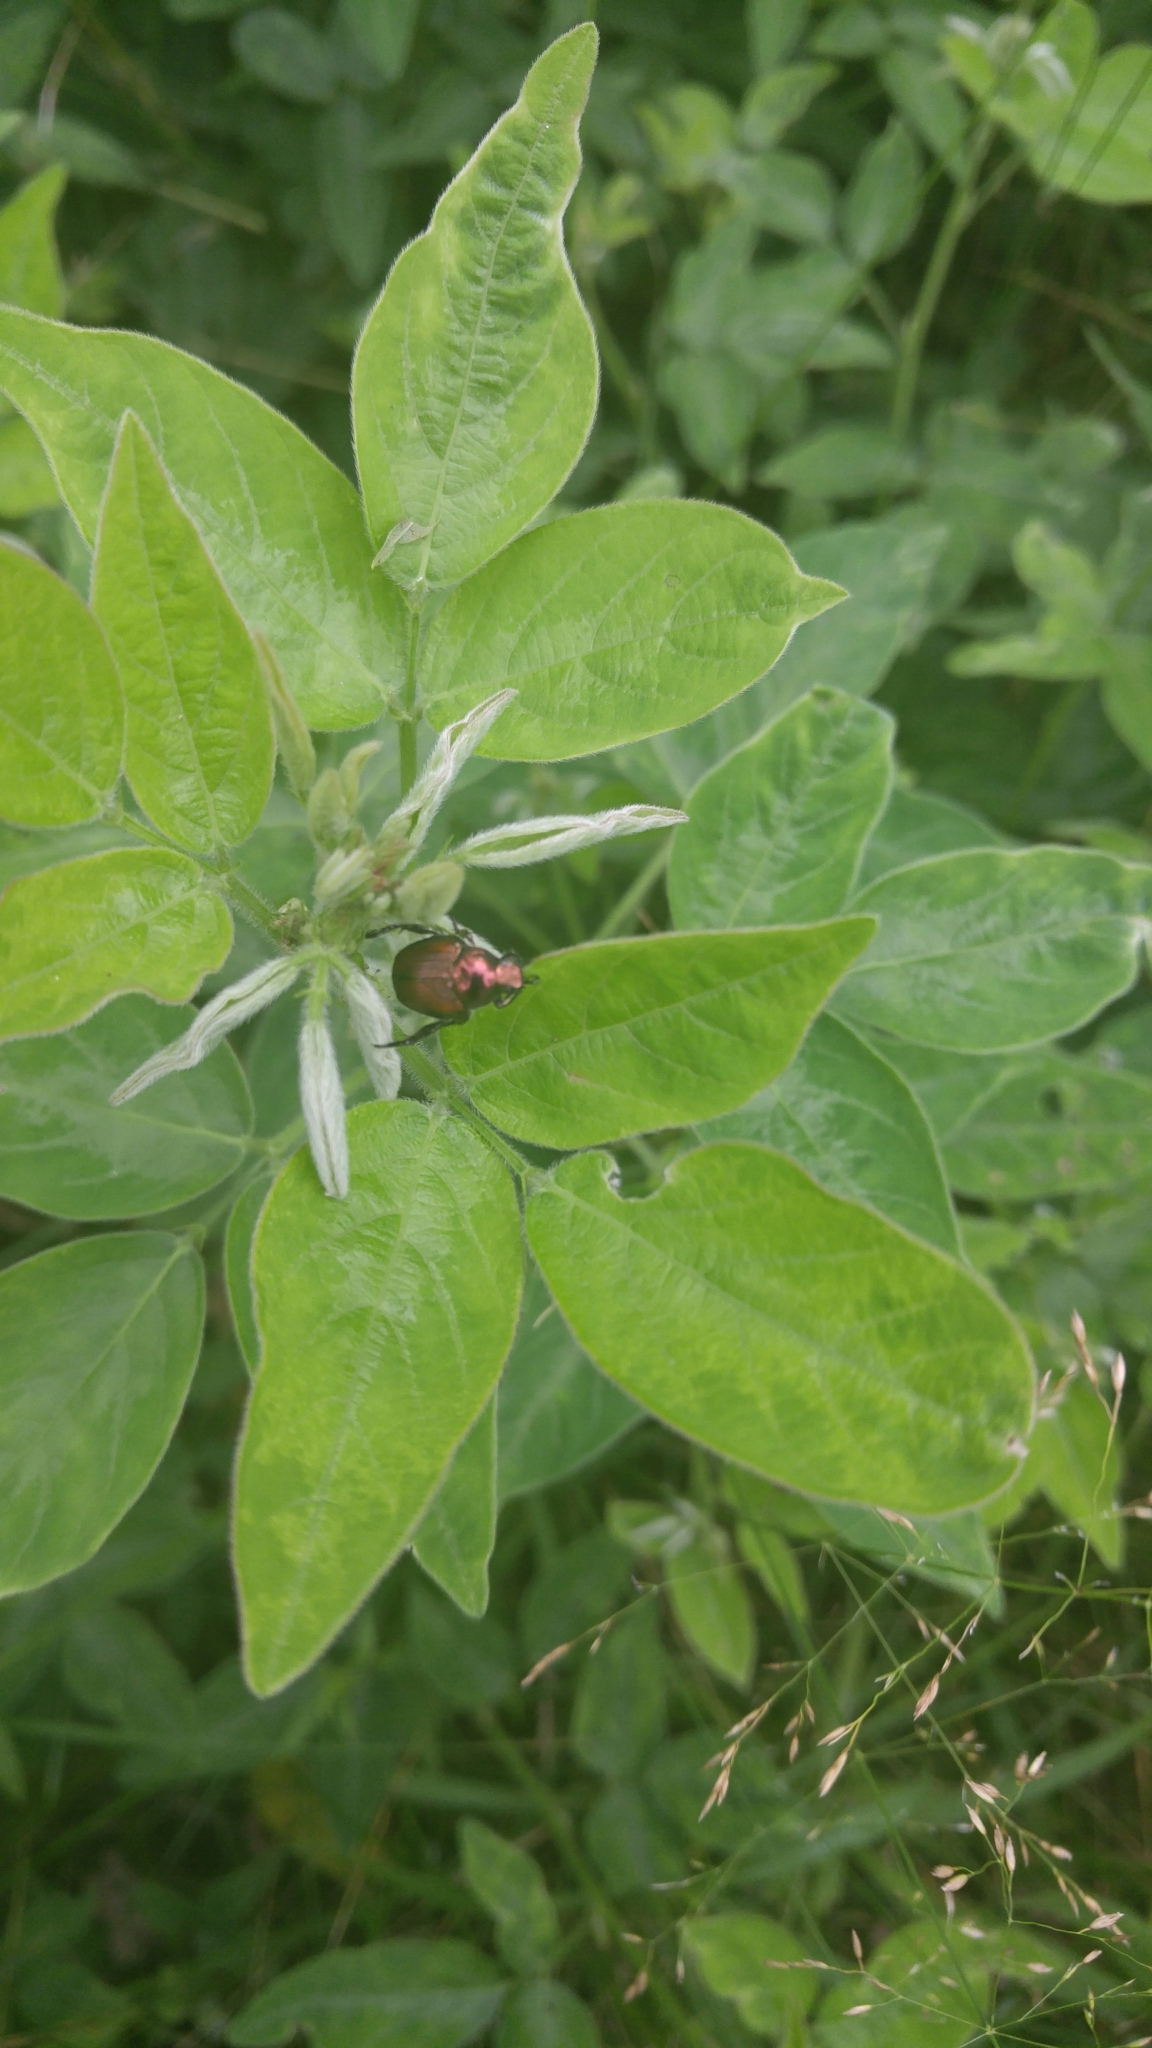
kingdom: Animalia
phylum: Arthropoda
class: Insecta
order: Coleoptera
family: Scarabaeidae
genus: Popillia
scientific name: Popillia japonica
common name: Japanese beetle
